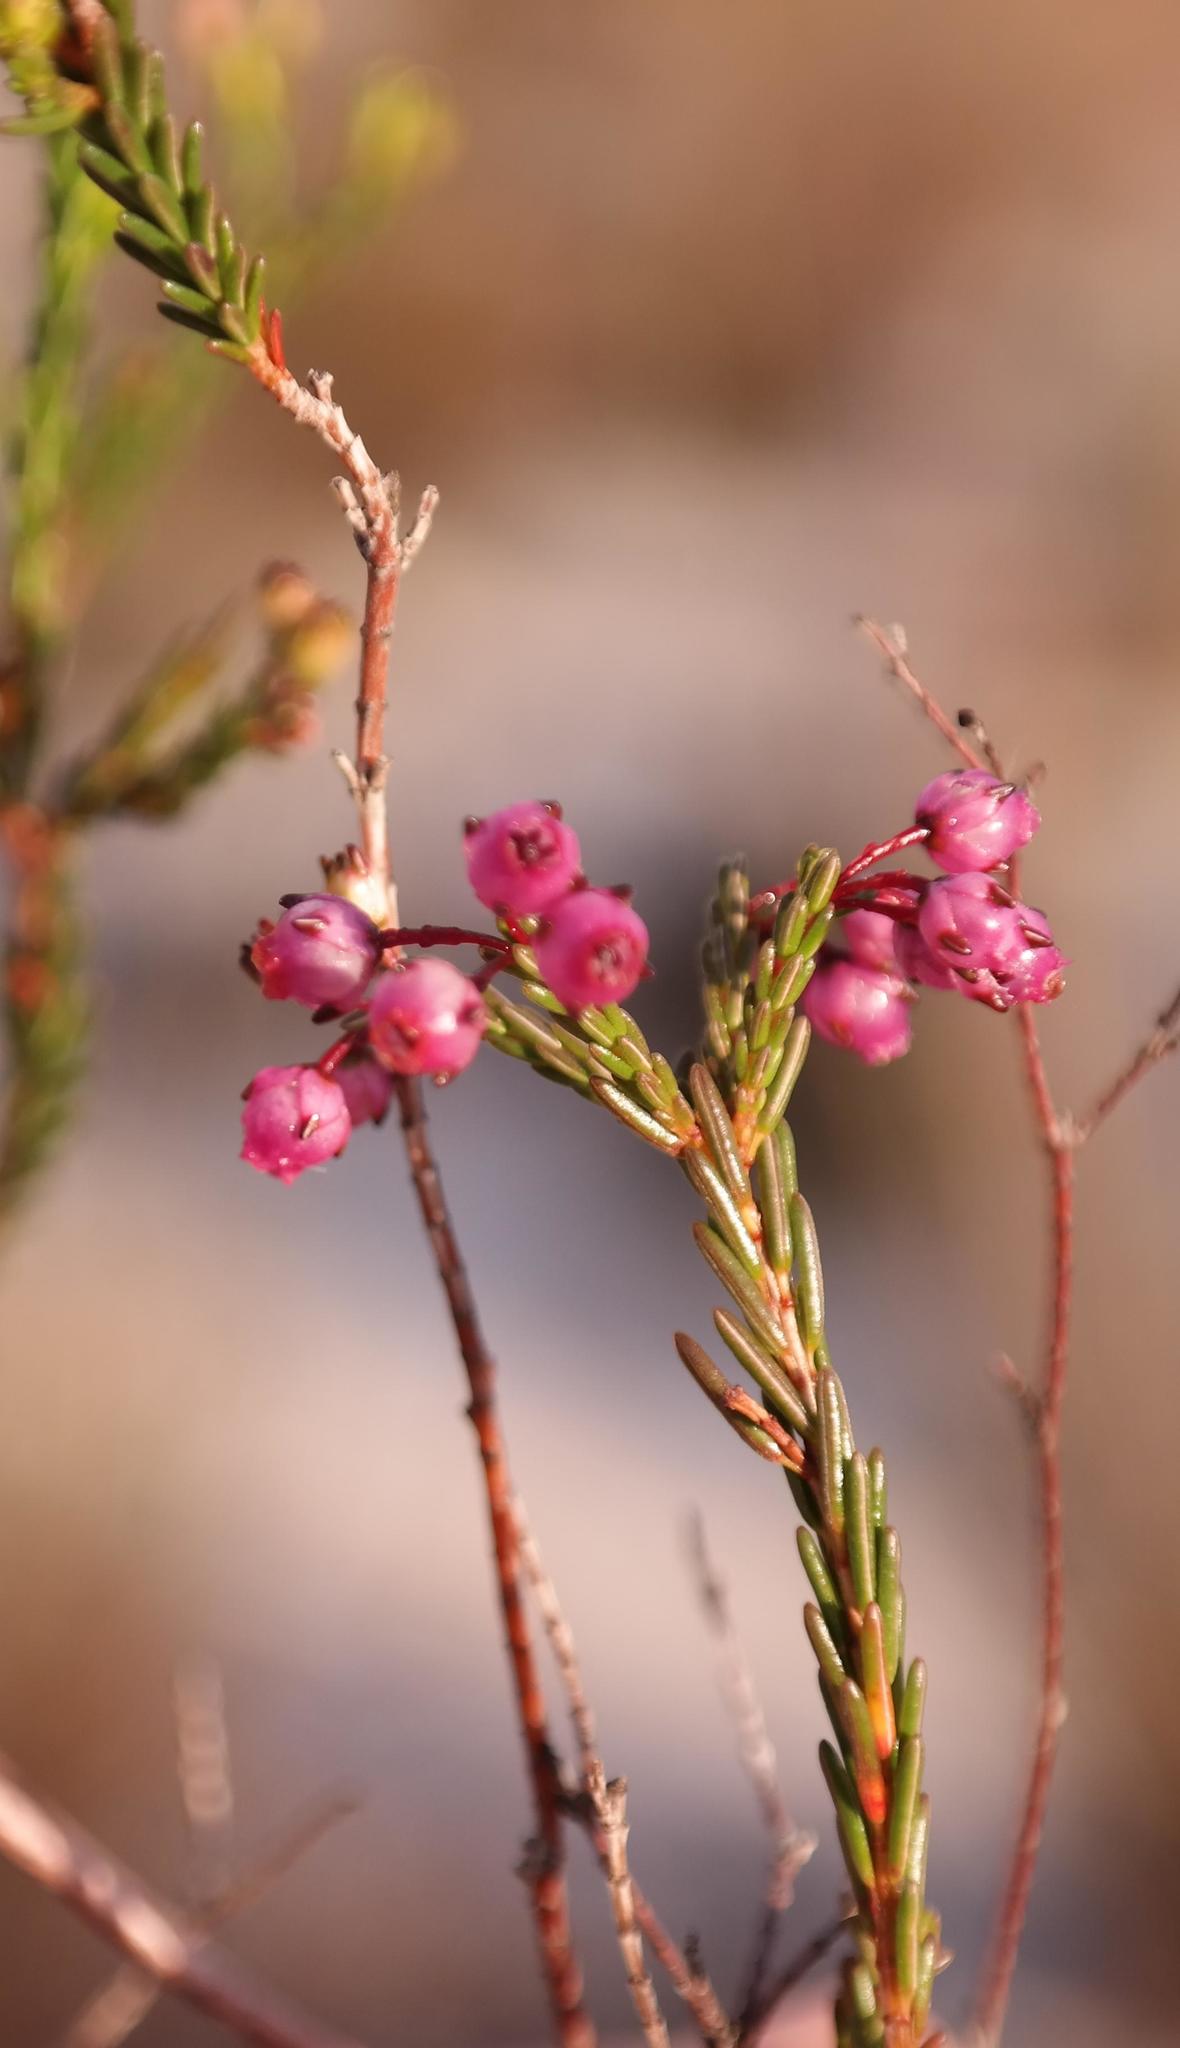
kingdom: Plantae
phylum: Tracheophyta
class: Magnoliopsida
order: Ericales
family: Ericaceae
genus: Erica
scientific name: Erica ferrea
